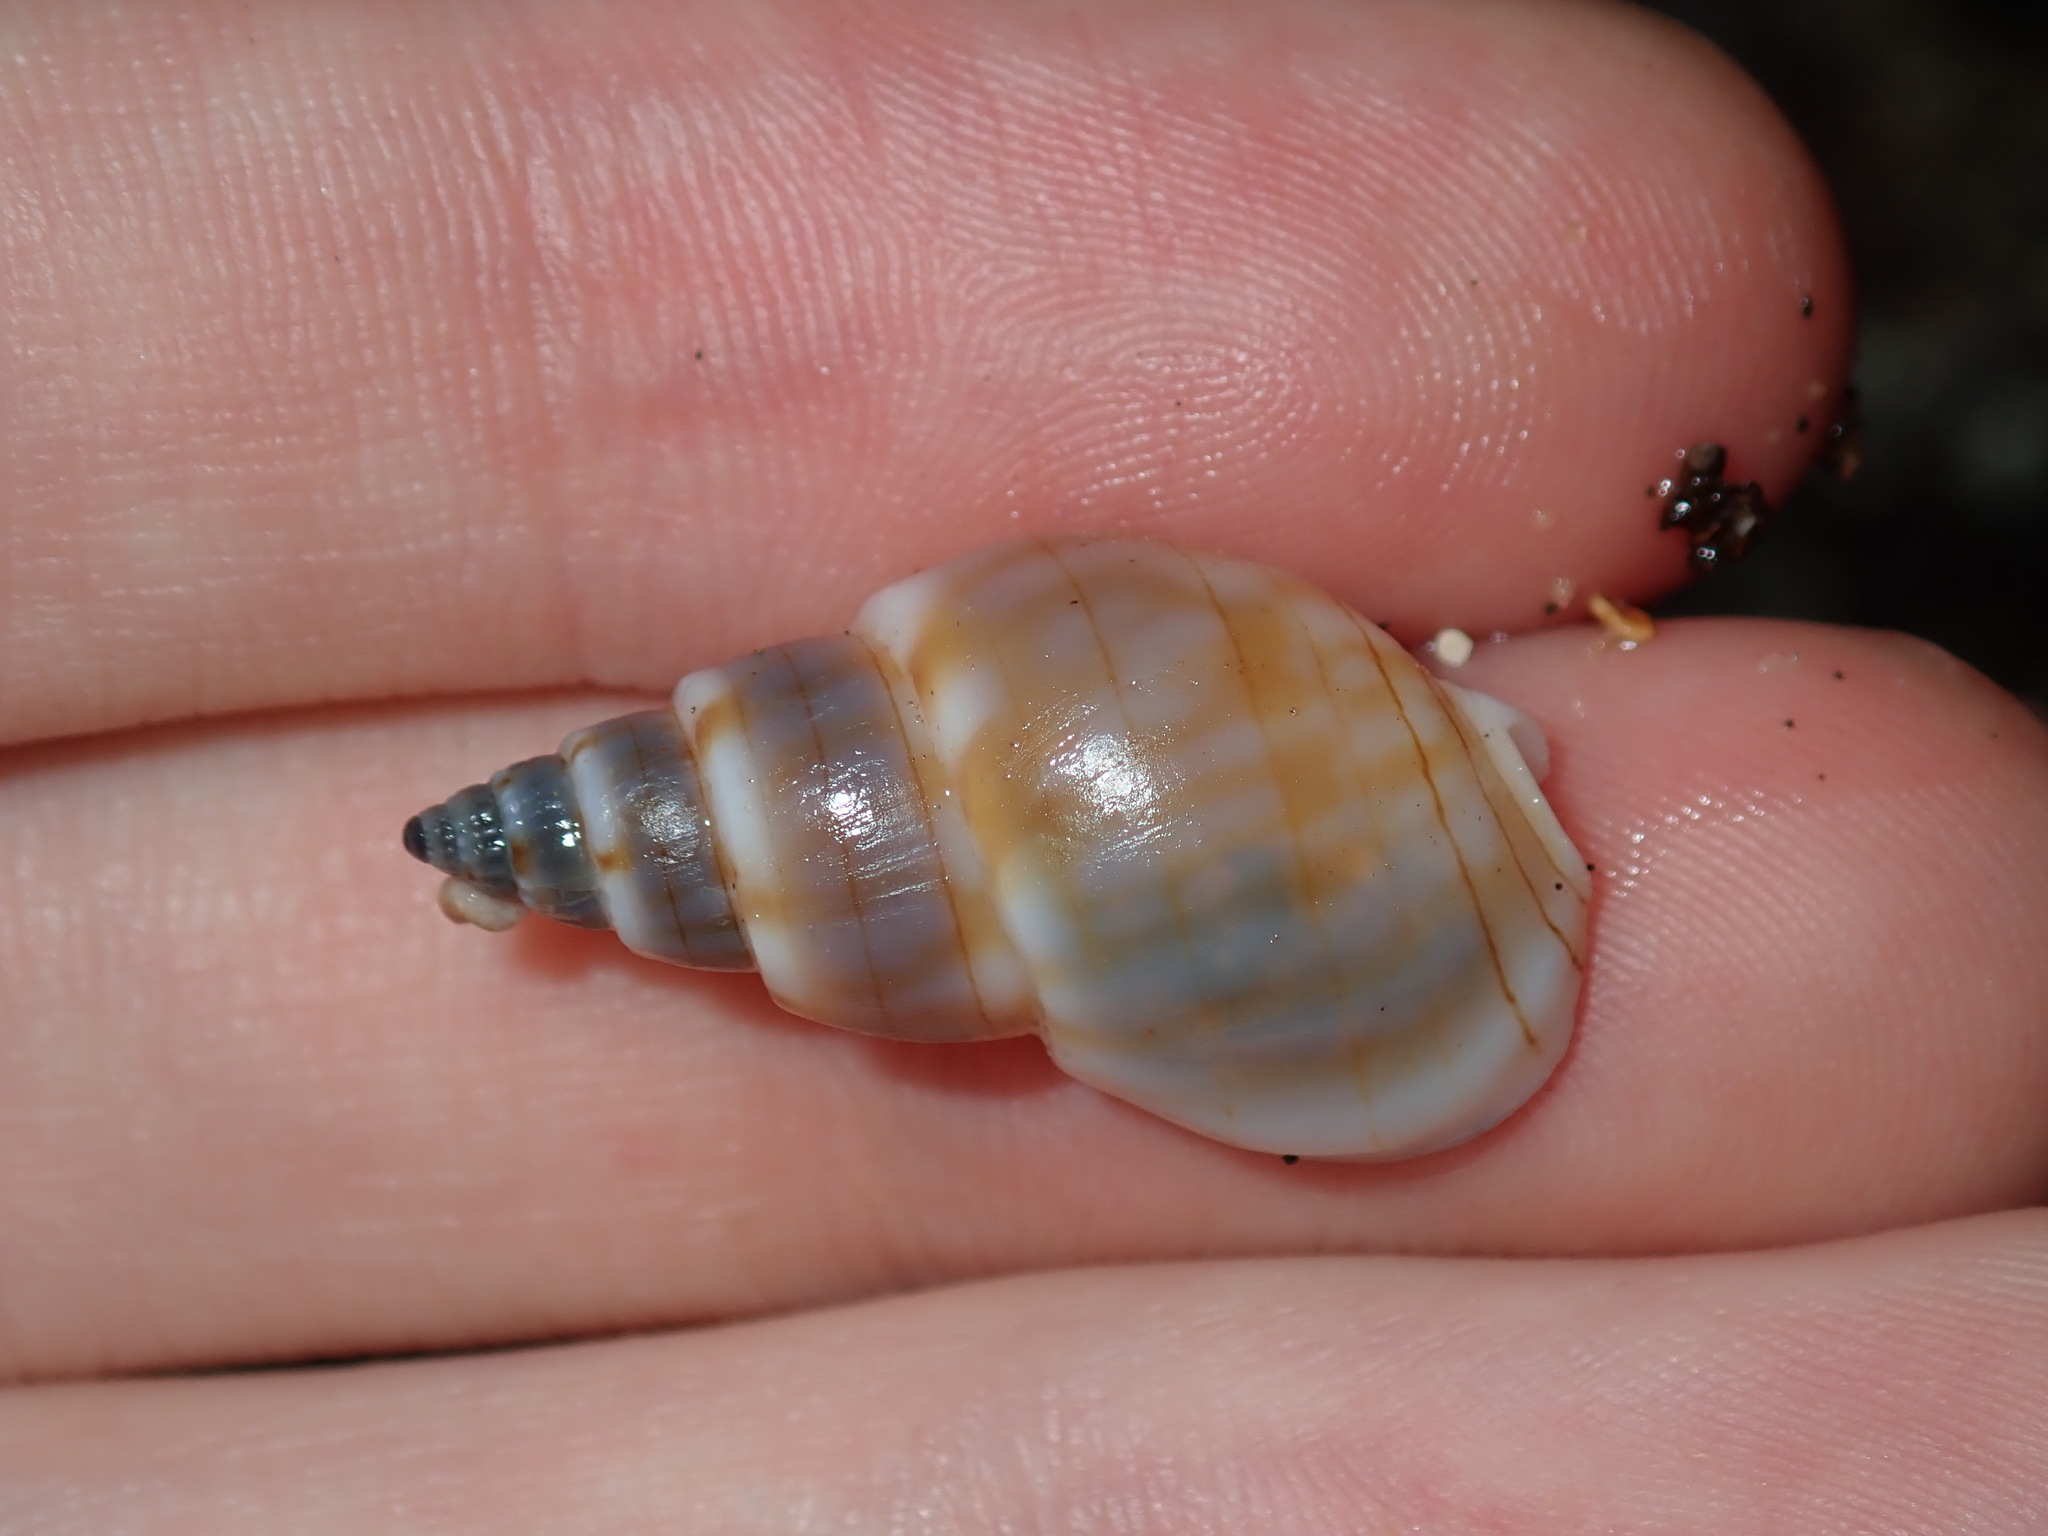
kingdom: Animalia
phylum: Mollusca
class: Gastropoda
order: Neogastropoda
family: Nassariidae
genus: Nassarius
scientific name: Nassarius particeps
